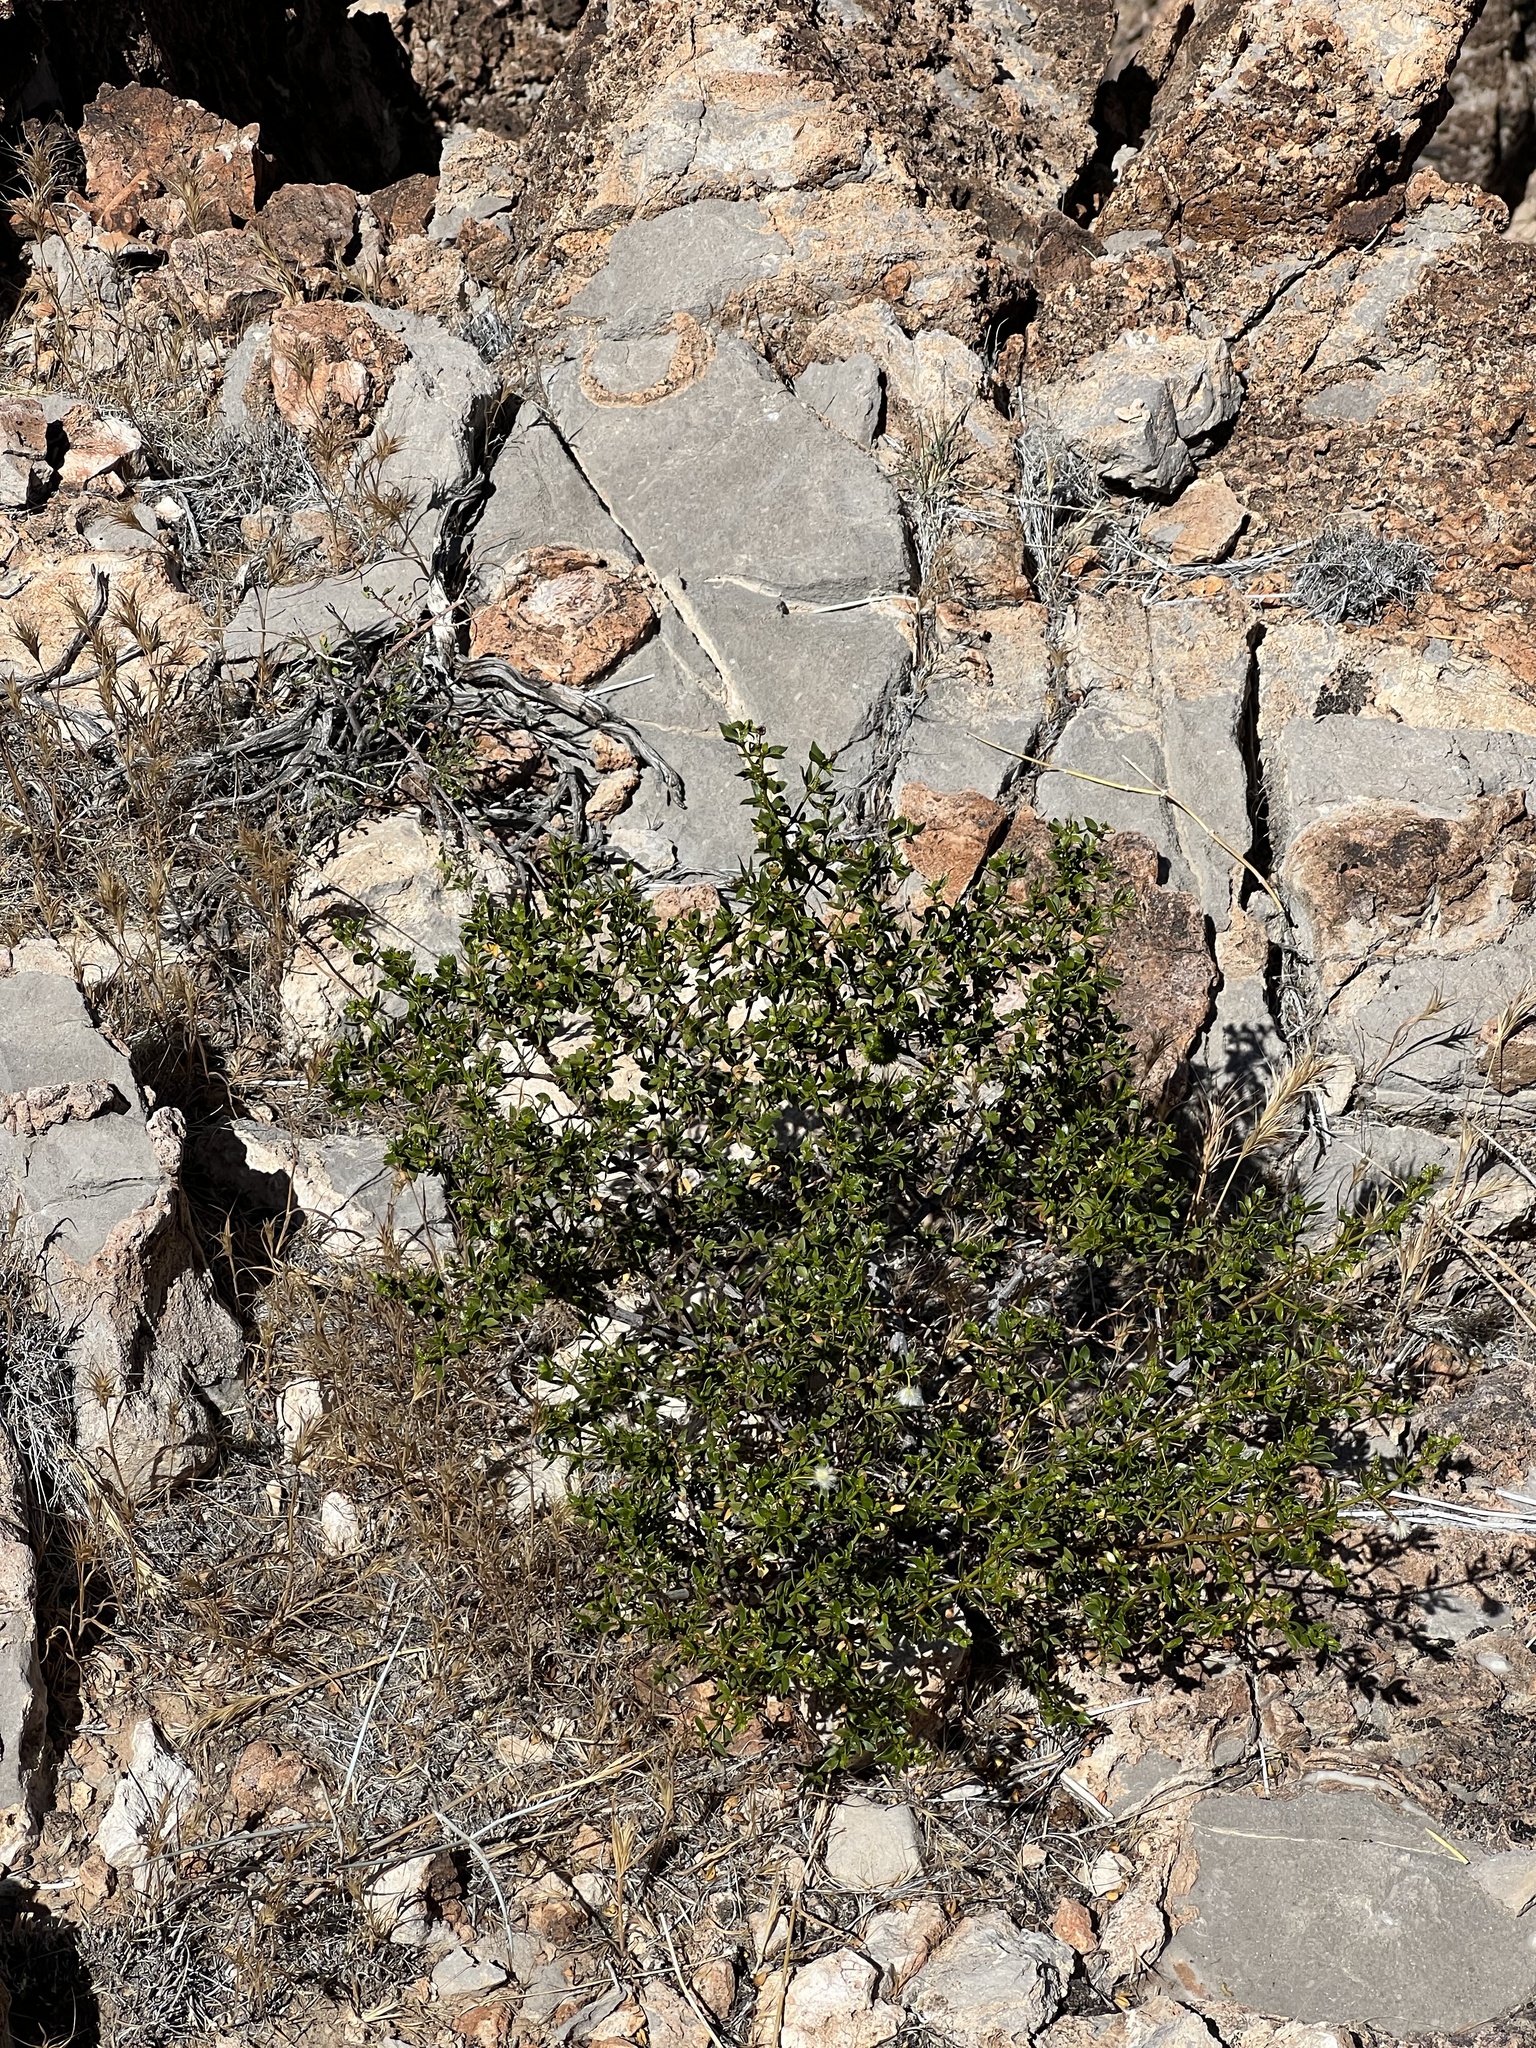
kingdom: Plantae
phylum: Tracheophyta
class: Magnoliopsida
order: Zygophyllales
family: Zygophyllaceae
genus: Larrea
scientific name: Larrea tridentata
